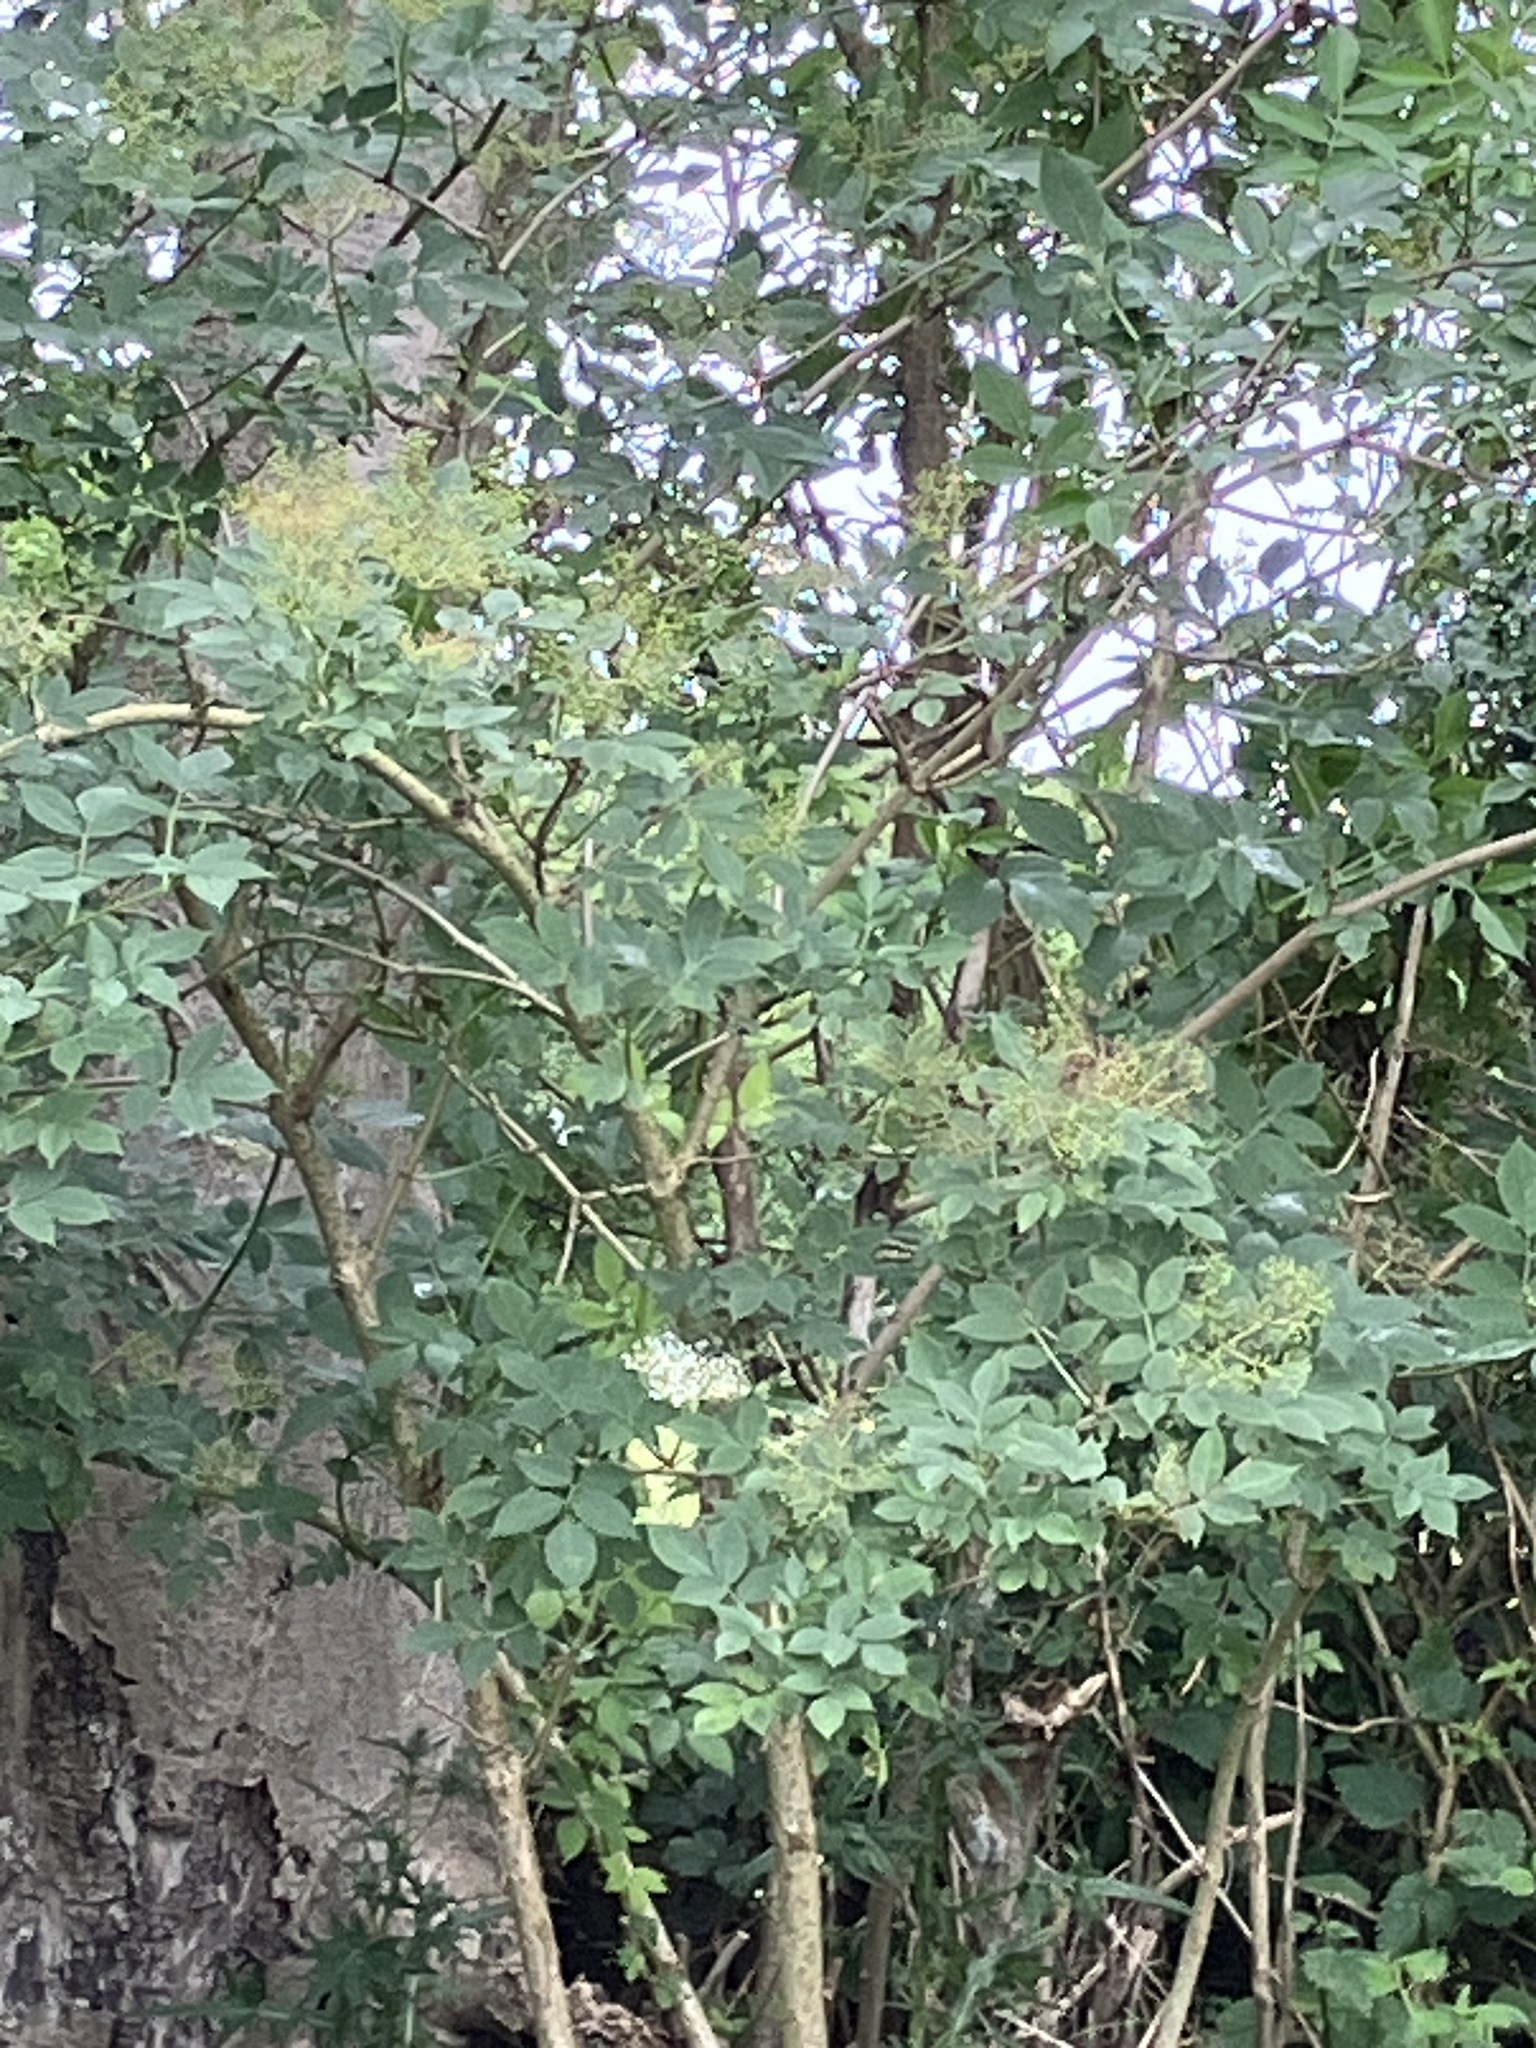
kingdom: Plantae
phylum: Tracheophyta
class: Magnoliopsida
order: Dipsacales
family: Viburnaceae
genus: Sambucus
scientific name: Sambucus nigra
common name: Elder
